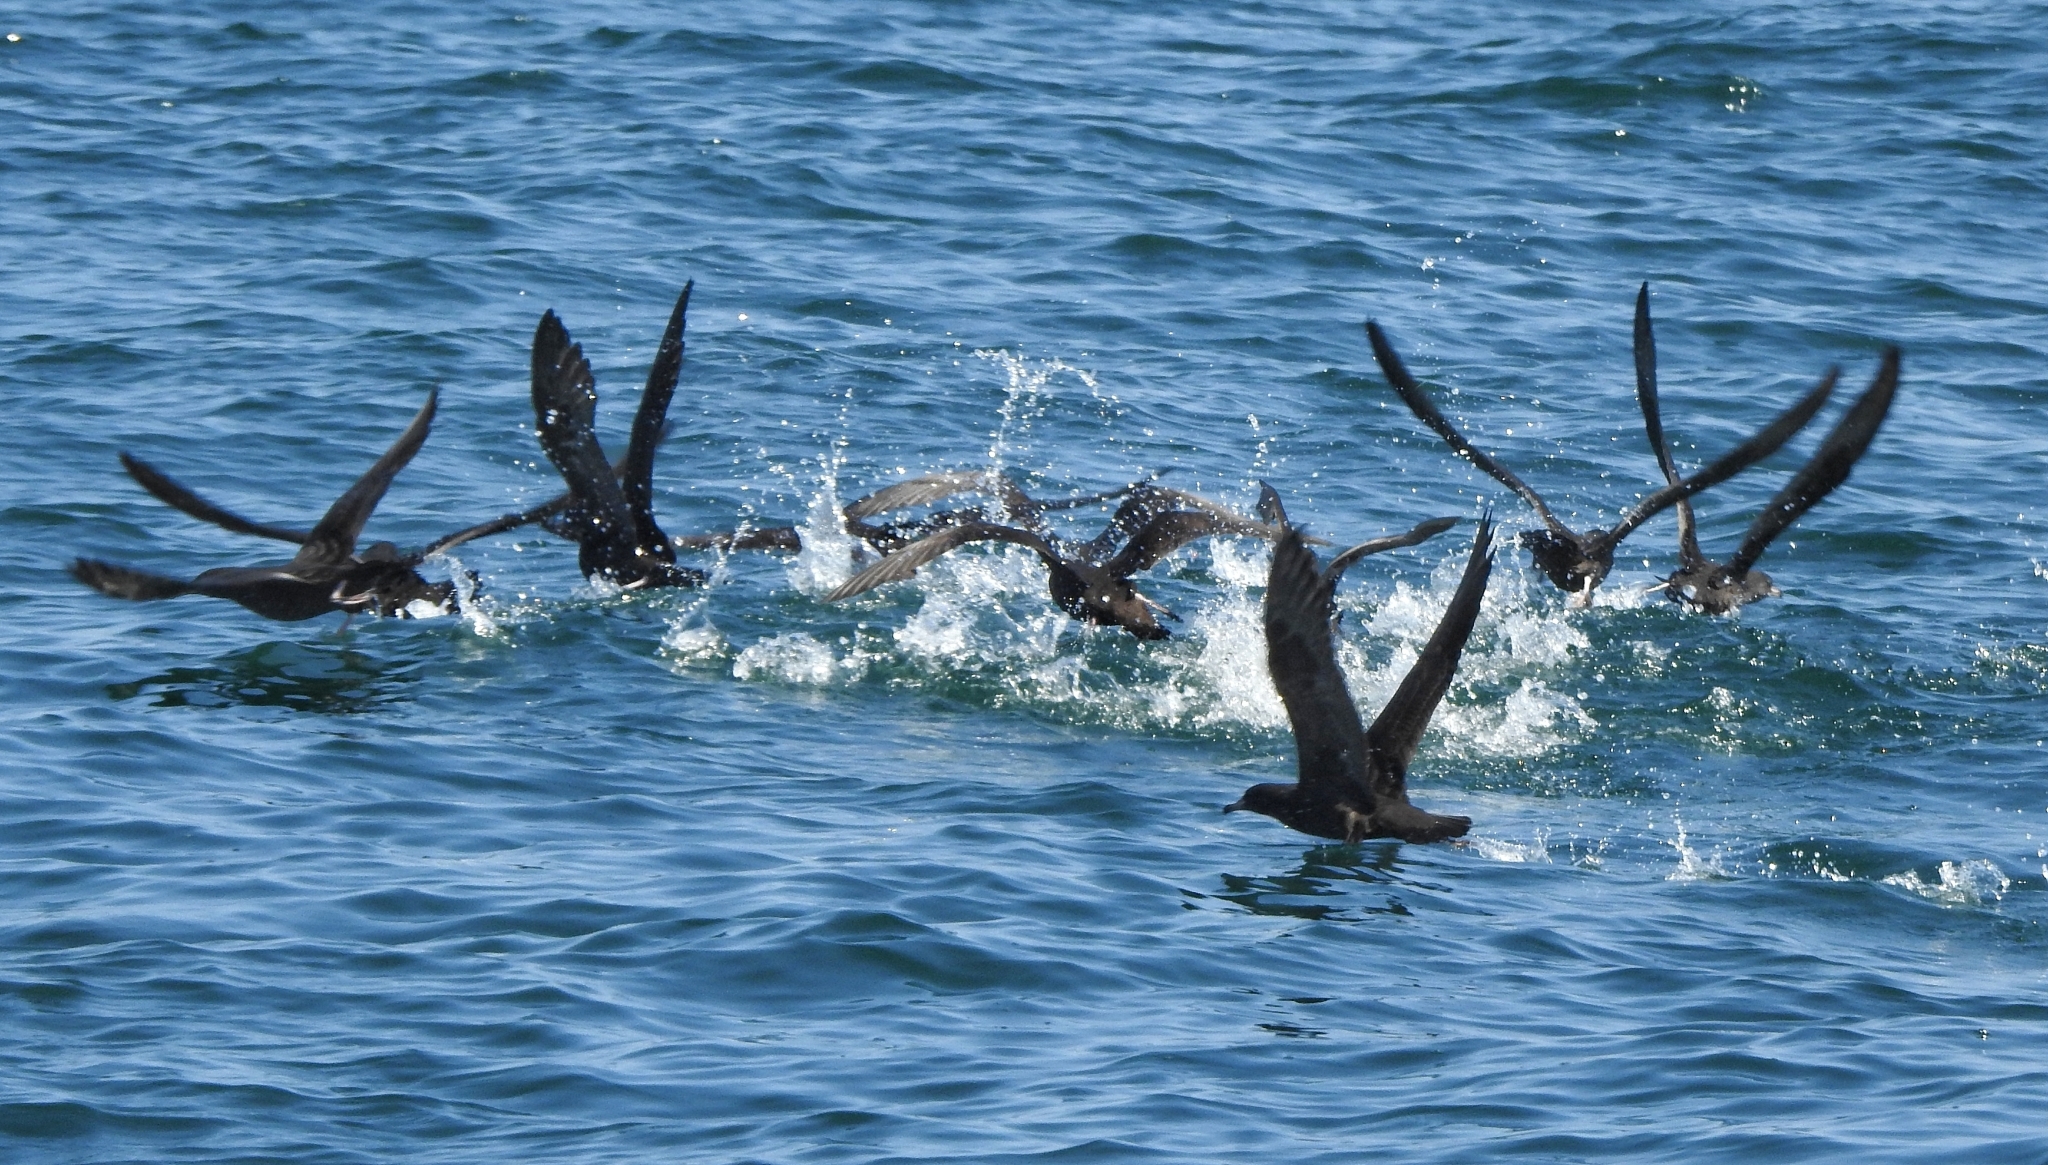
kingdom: Animalia
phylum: Chordata
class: Aves
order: Procellariiformes
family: Procellariidae
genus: Puffinus
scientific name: Puffinus carneipes
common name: Flesh-footed shearwater
